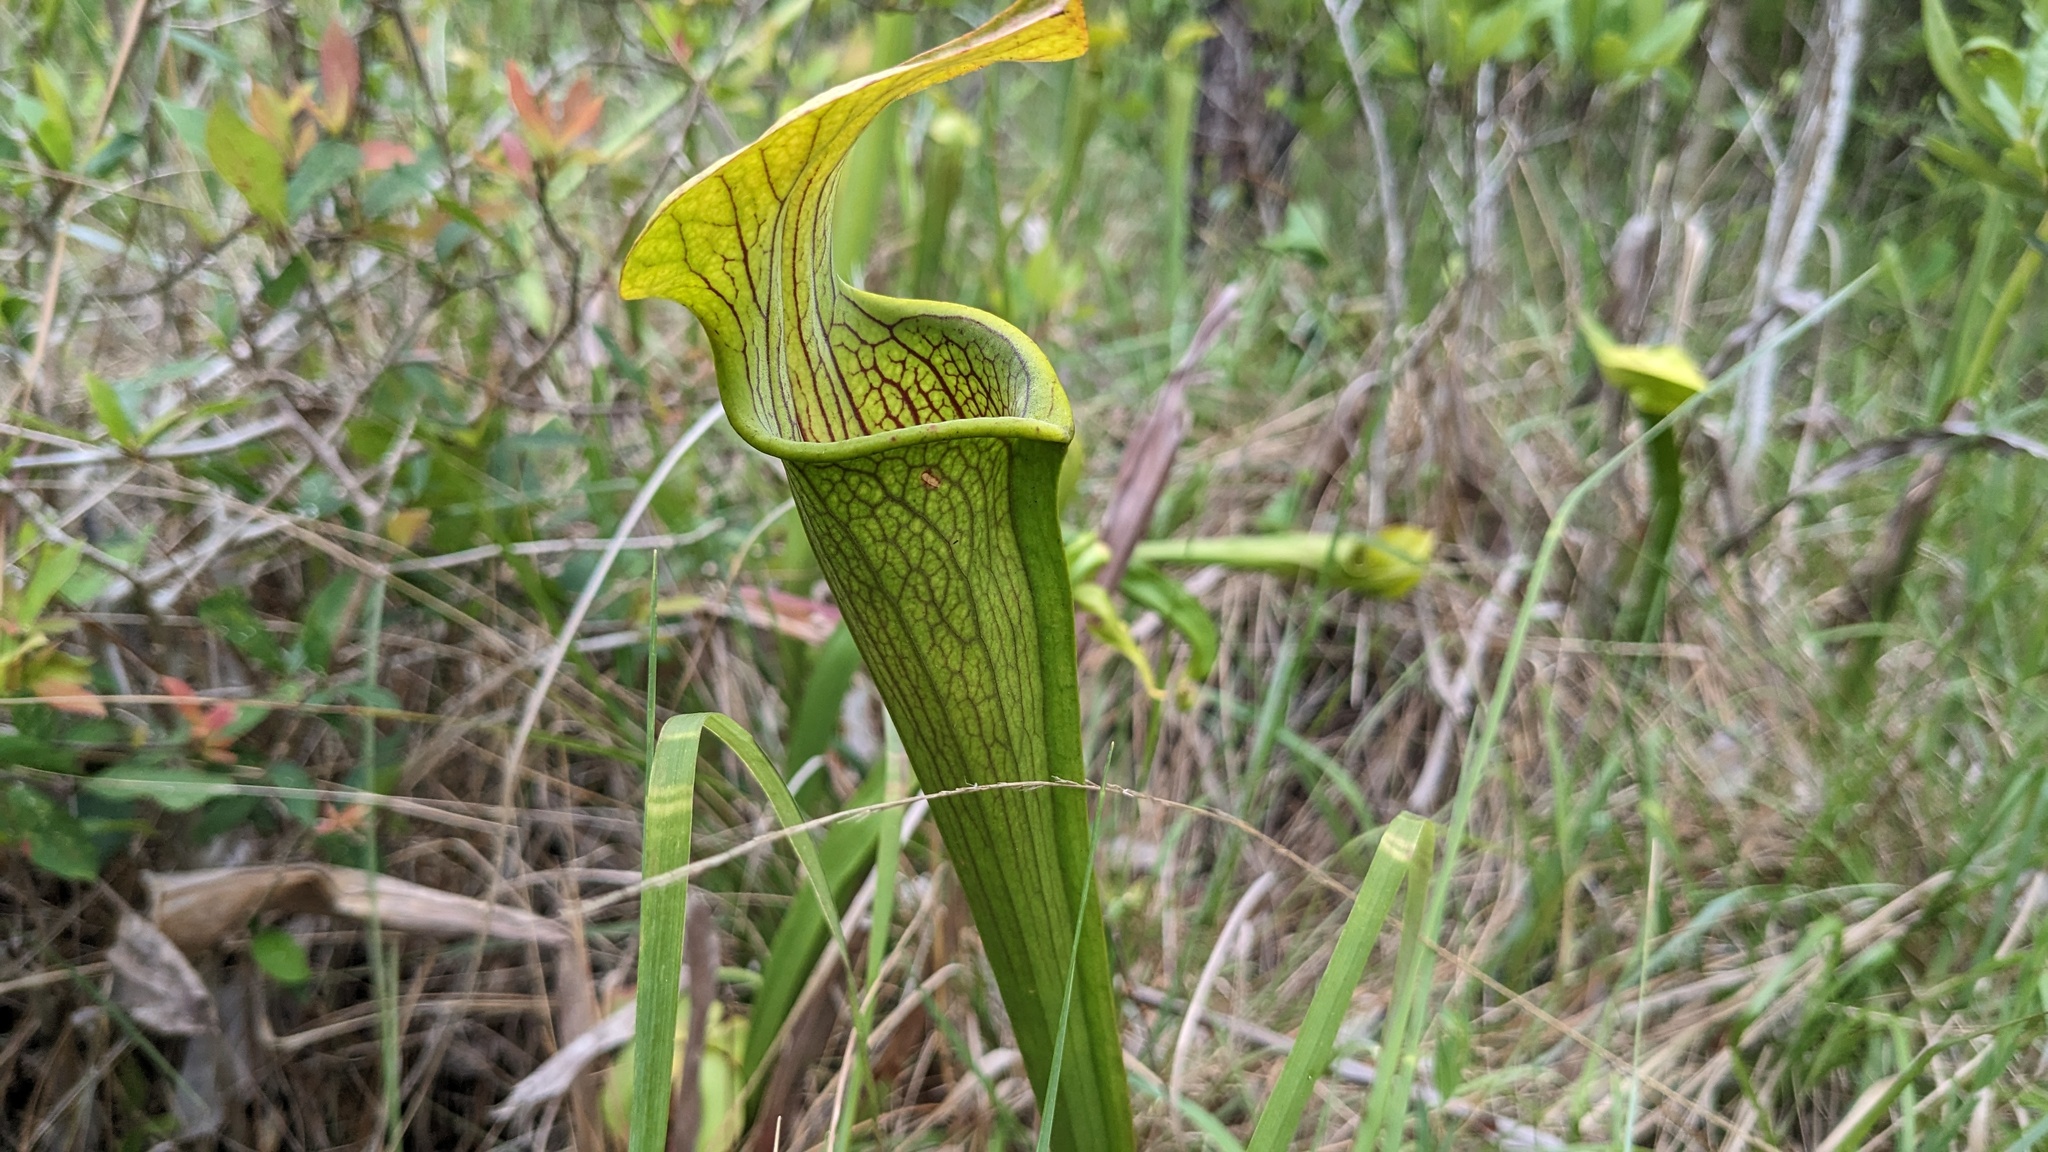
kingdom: Plantae
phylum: Tracheophyta
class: Magnoliopsida
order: Ericales
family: Sarraceniaceae
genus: Sarracenia
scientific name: Sarracenia alata
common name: Yellow trumpets
